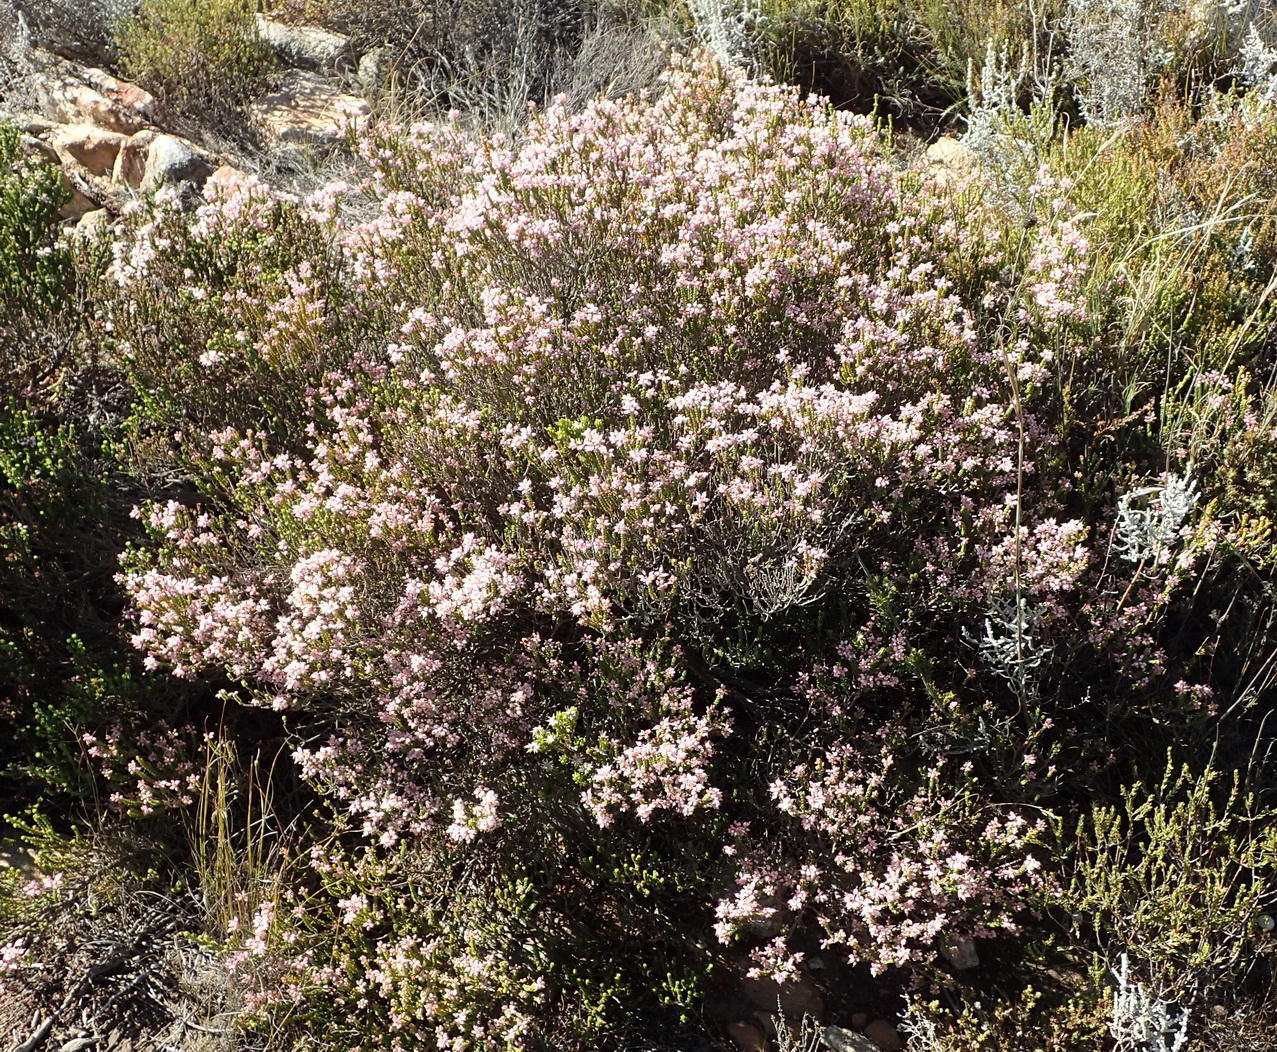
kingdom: Plantae
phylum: Tracheophyta
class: Magnoliopsida
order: Ericales
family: Ericaceae
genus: Erica
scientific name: Erica petraea
